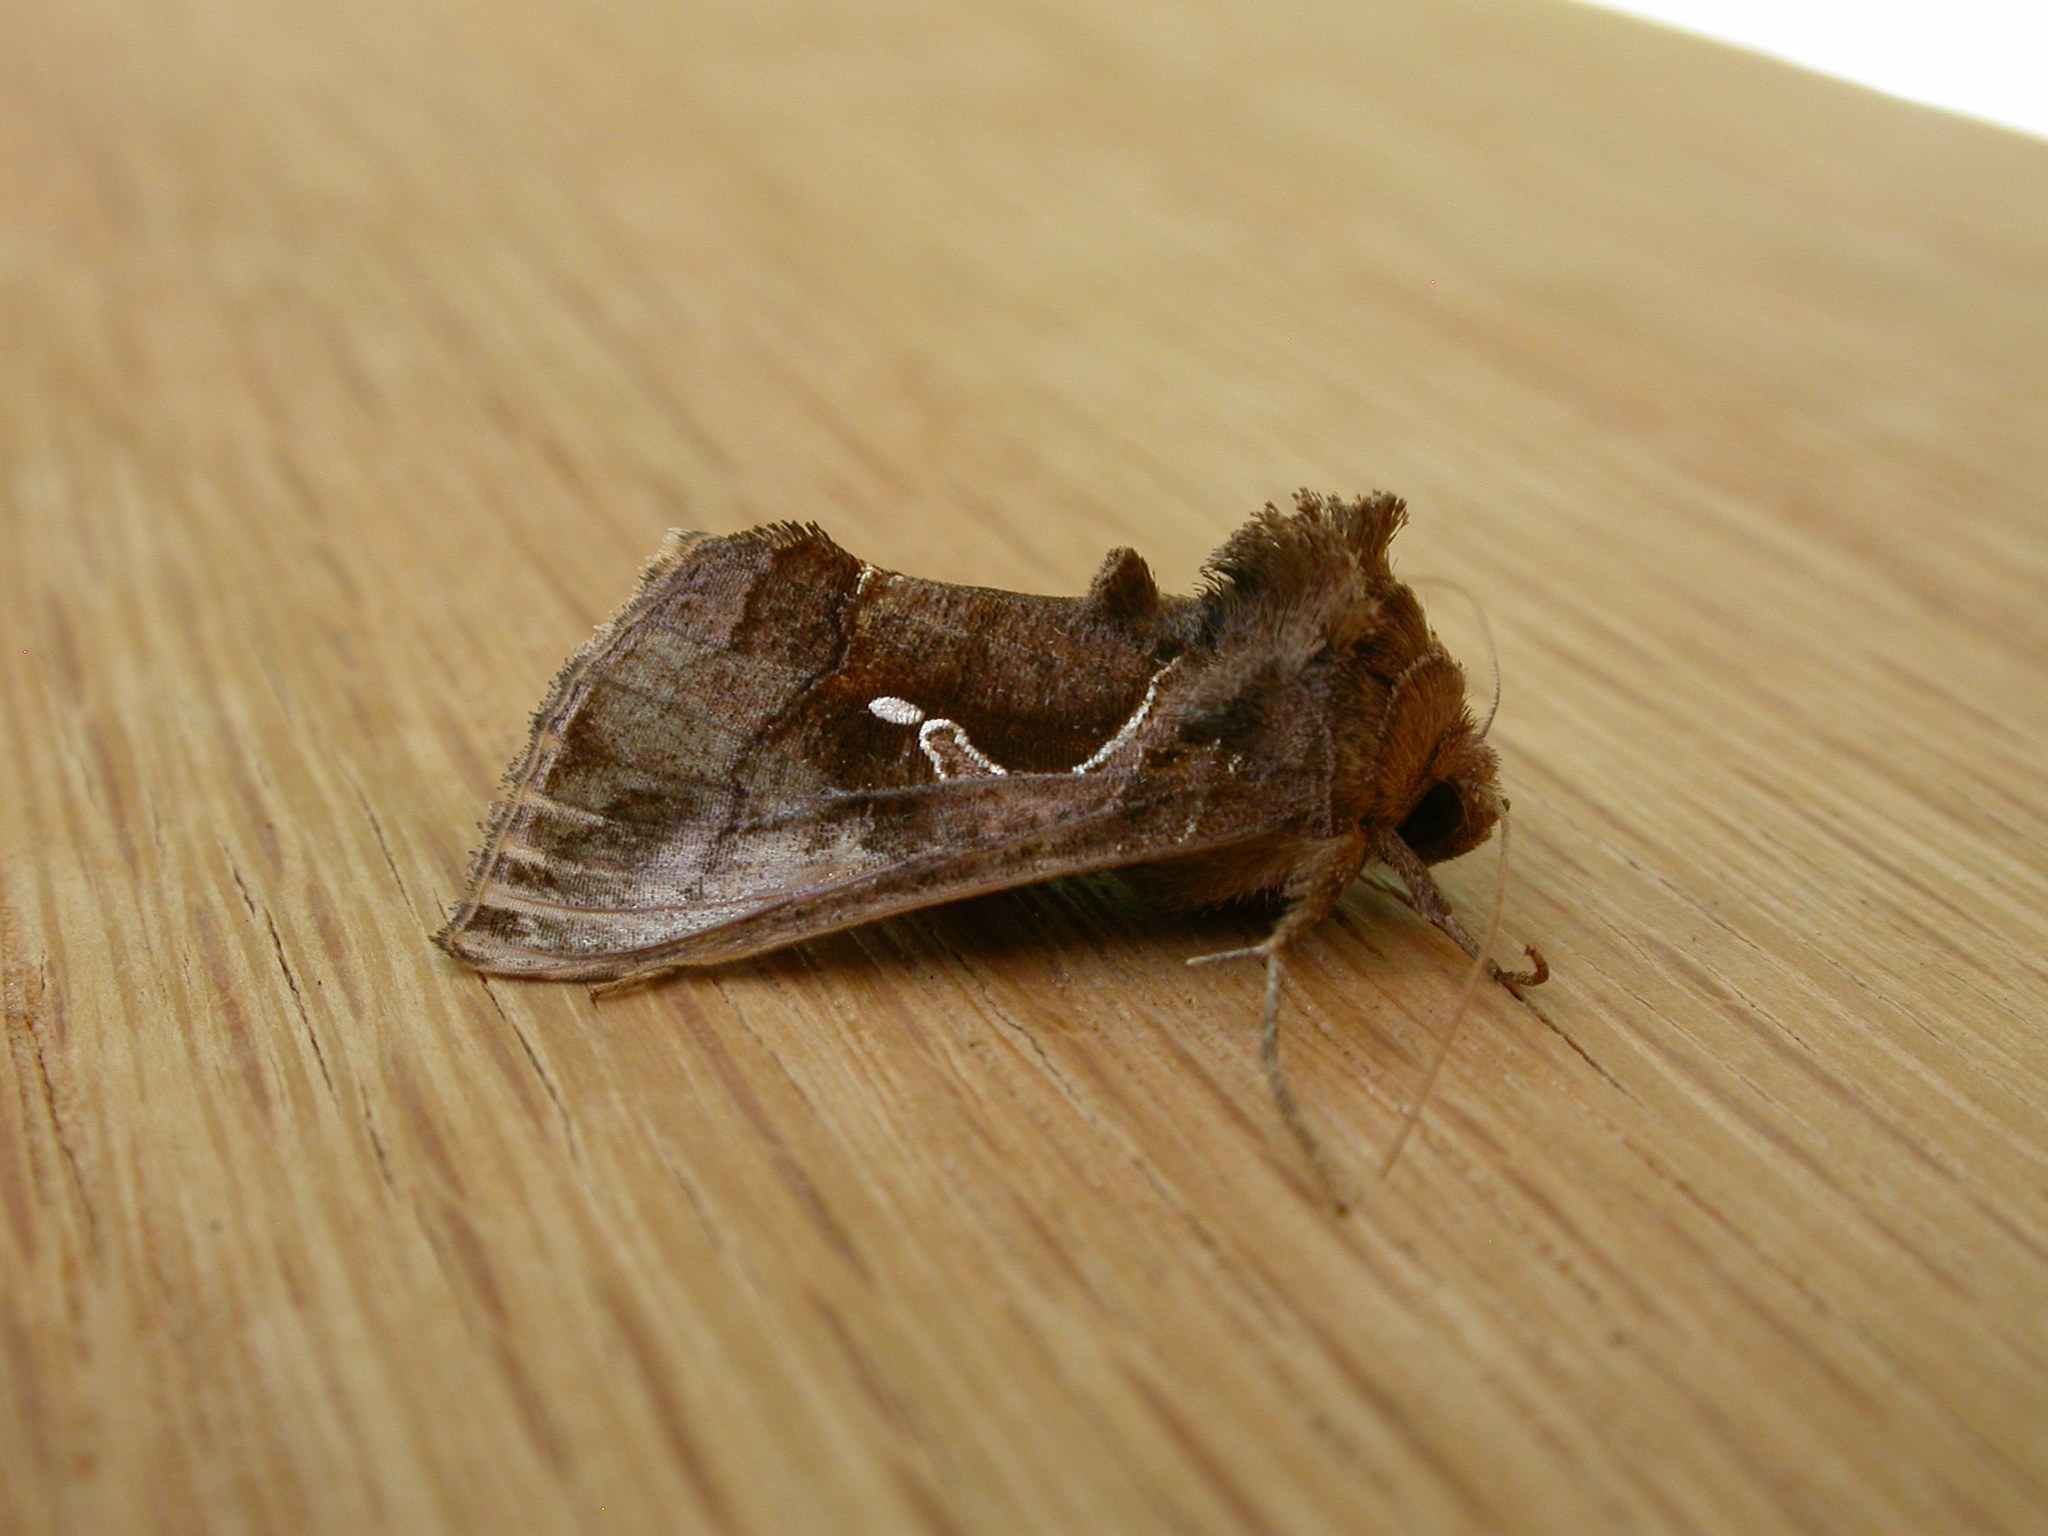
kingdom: Animalia
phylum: Arthropoda
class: Insecta
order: Lepidoptera
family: Noctuidae
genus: Chrysodeixis
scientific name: Chrysodeixis subsidens
